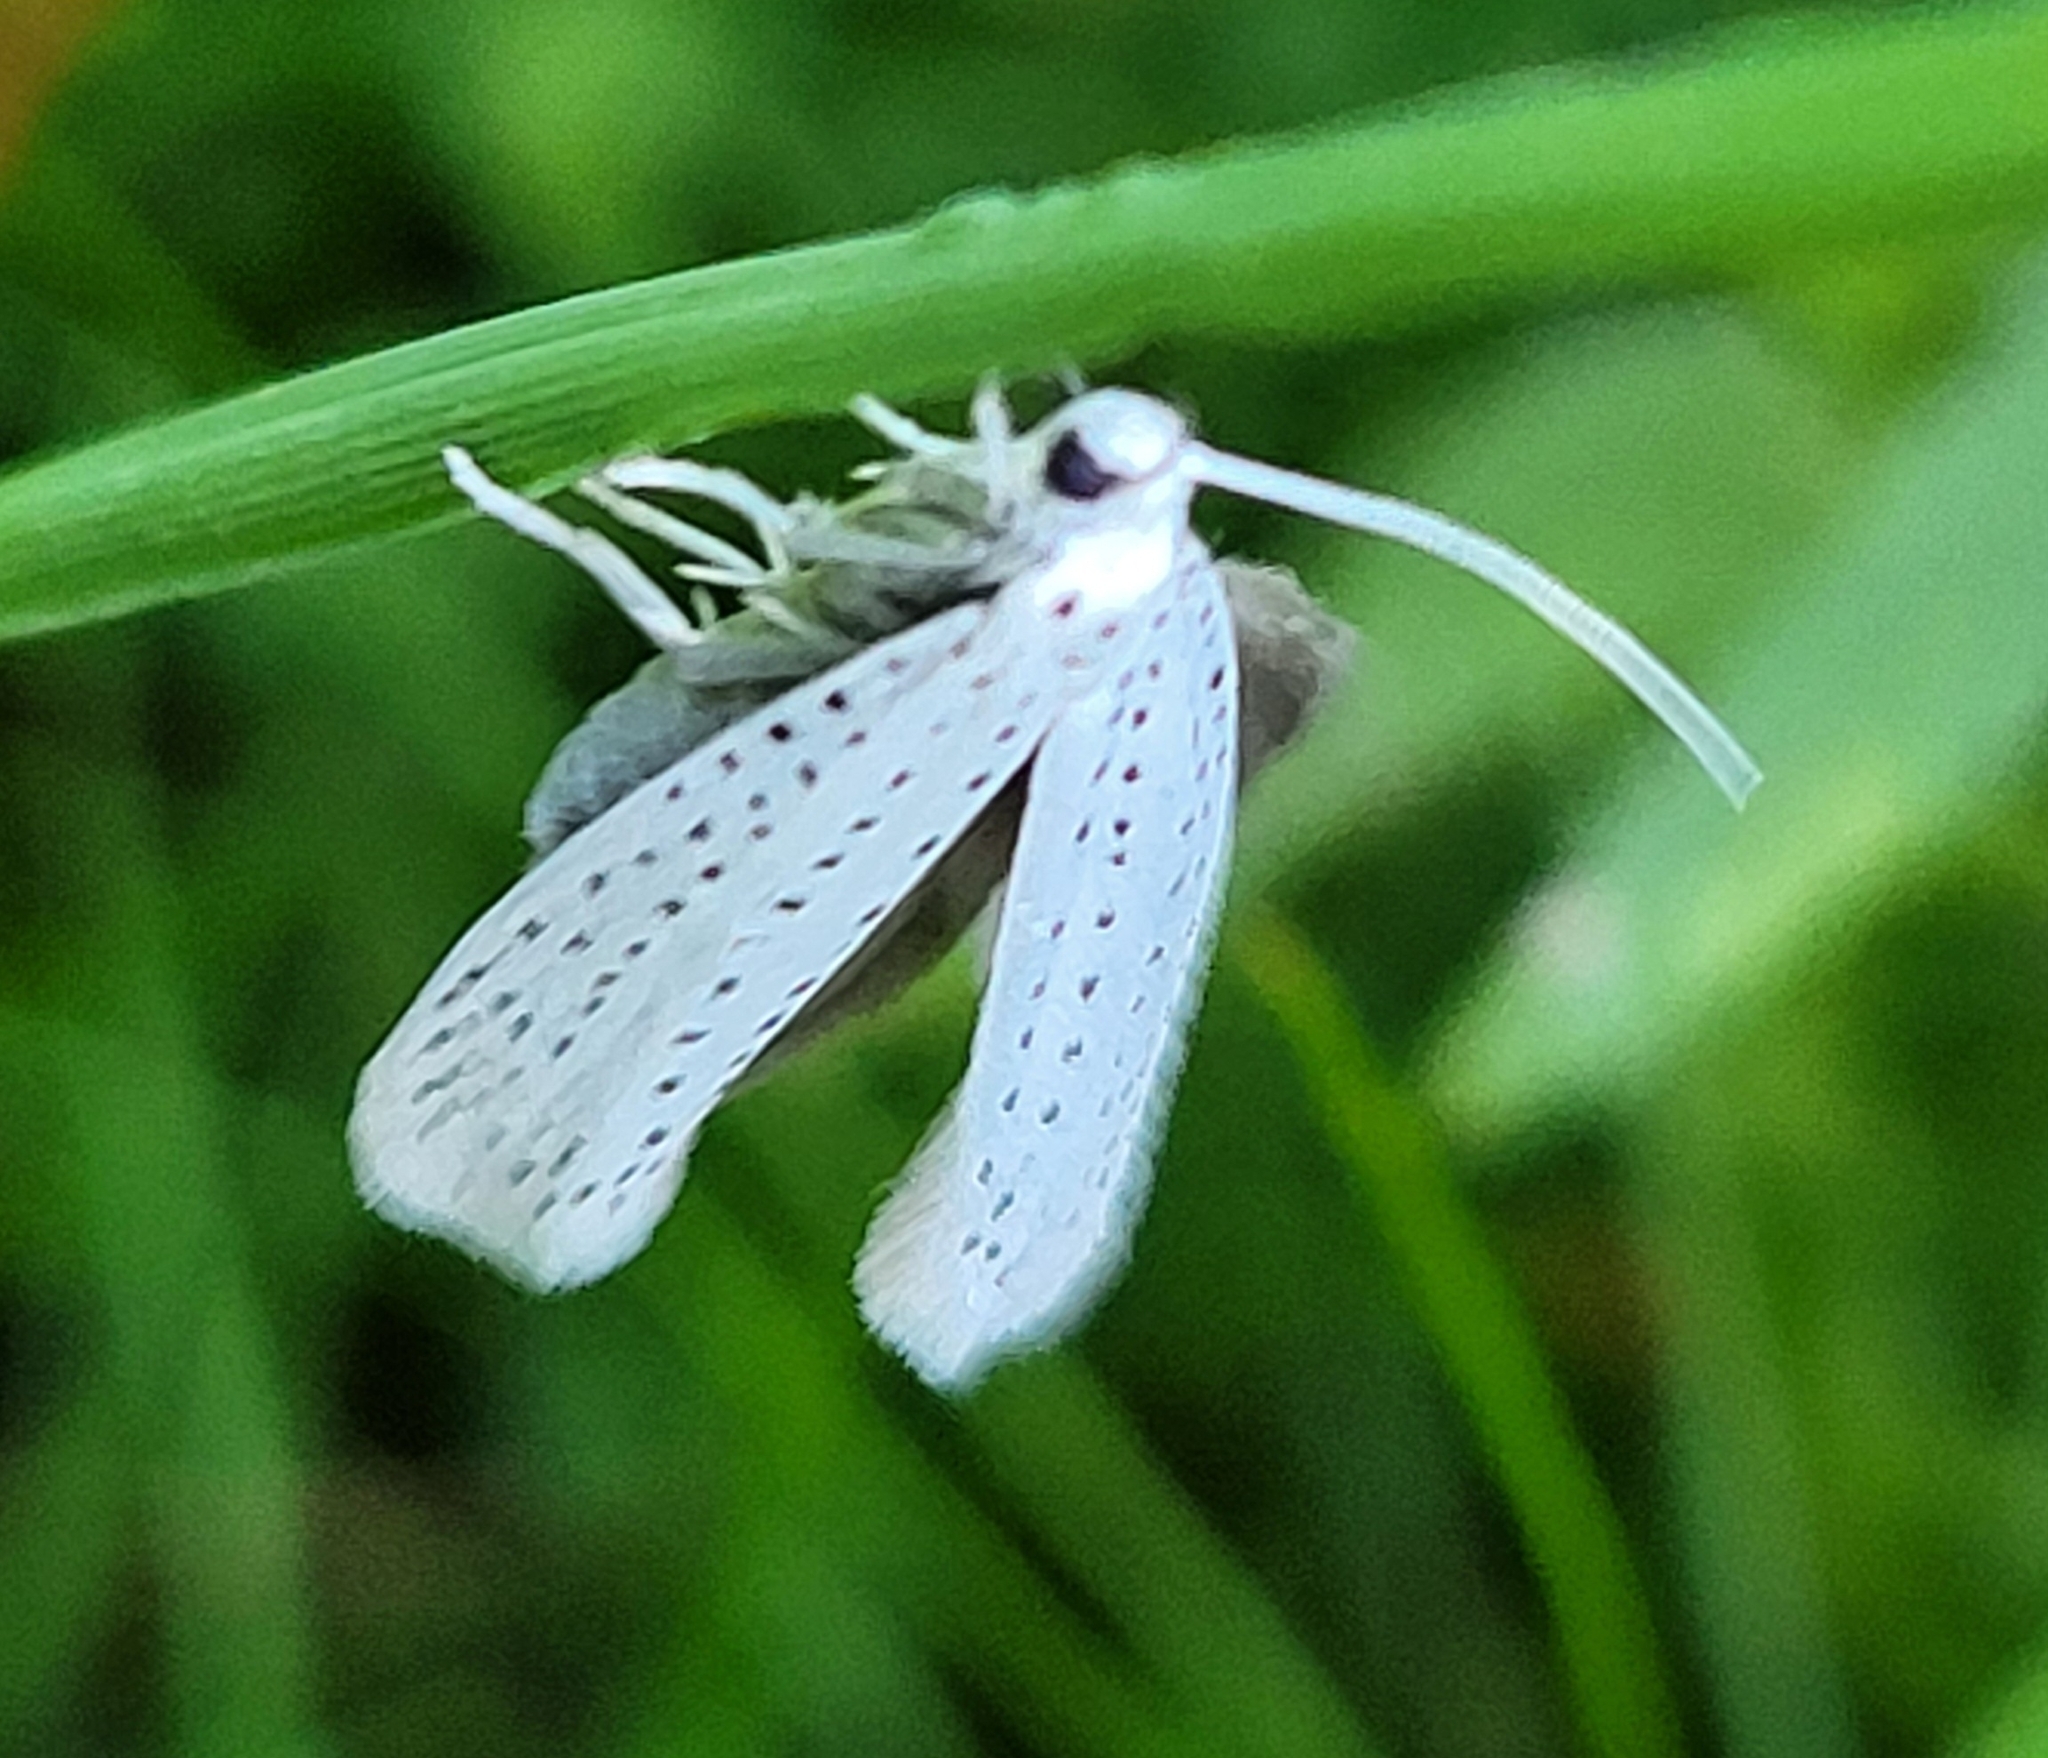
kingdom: Animalia
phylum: Arthropoda
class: Insecta
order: Lepidoptera
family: Yponomeutidae
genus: Yponomeuta
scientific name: Yponomeuta evonymella
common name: Bird-cherry ermine
